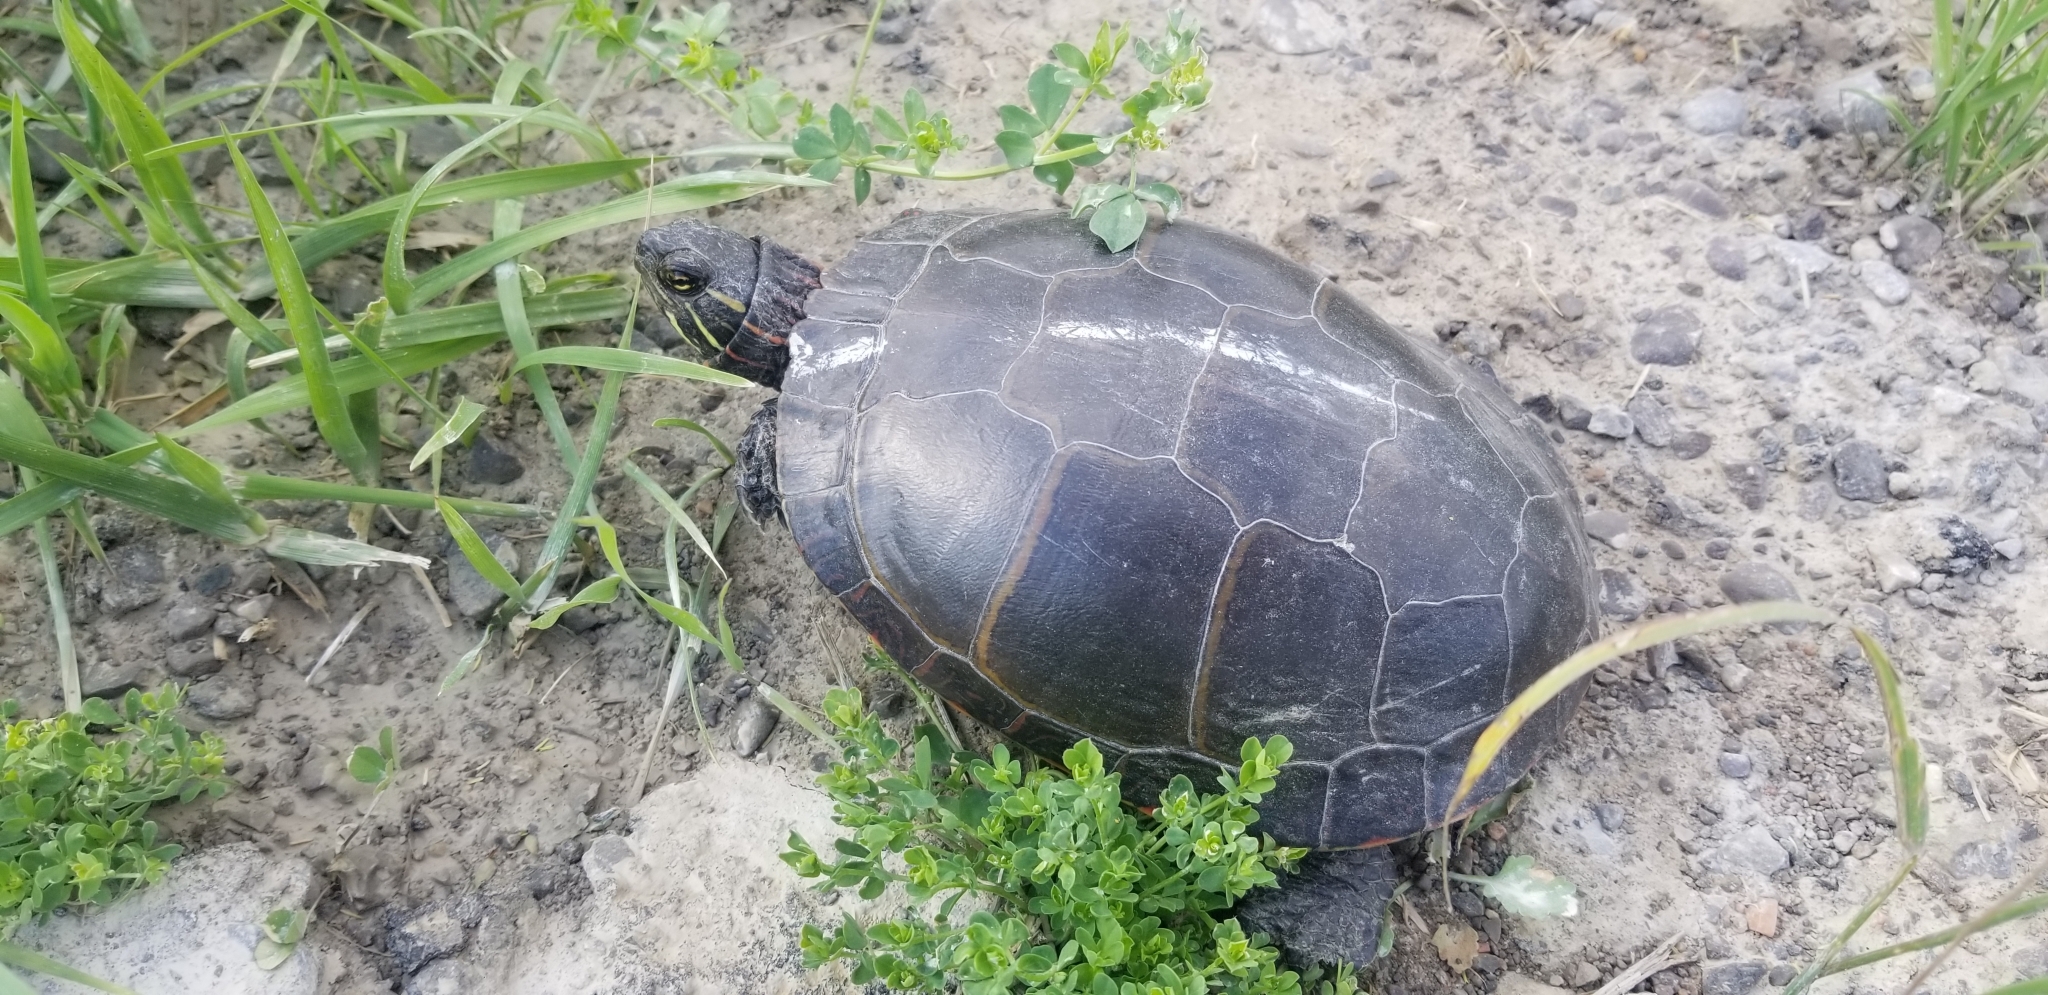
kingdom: Animalia
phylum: Chordata
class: Testudines
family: Emydidae
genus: Chrysemys
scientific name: Chrysemys picta
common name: Painted turtle
